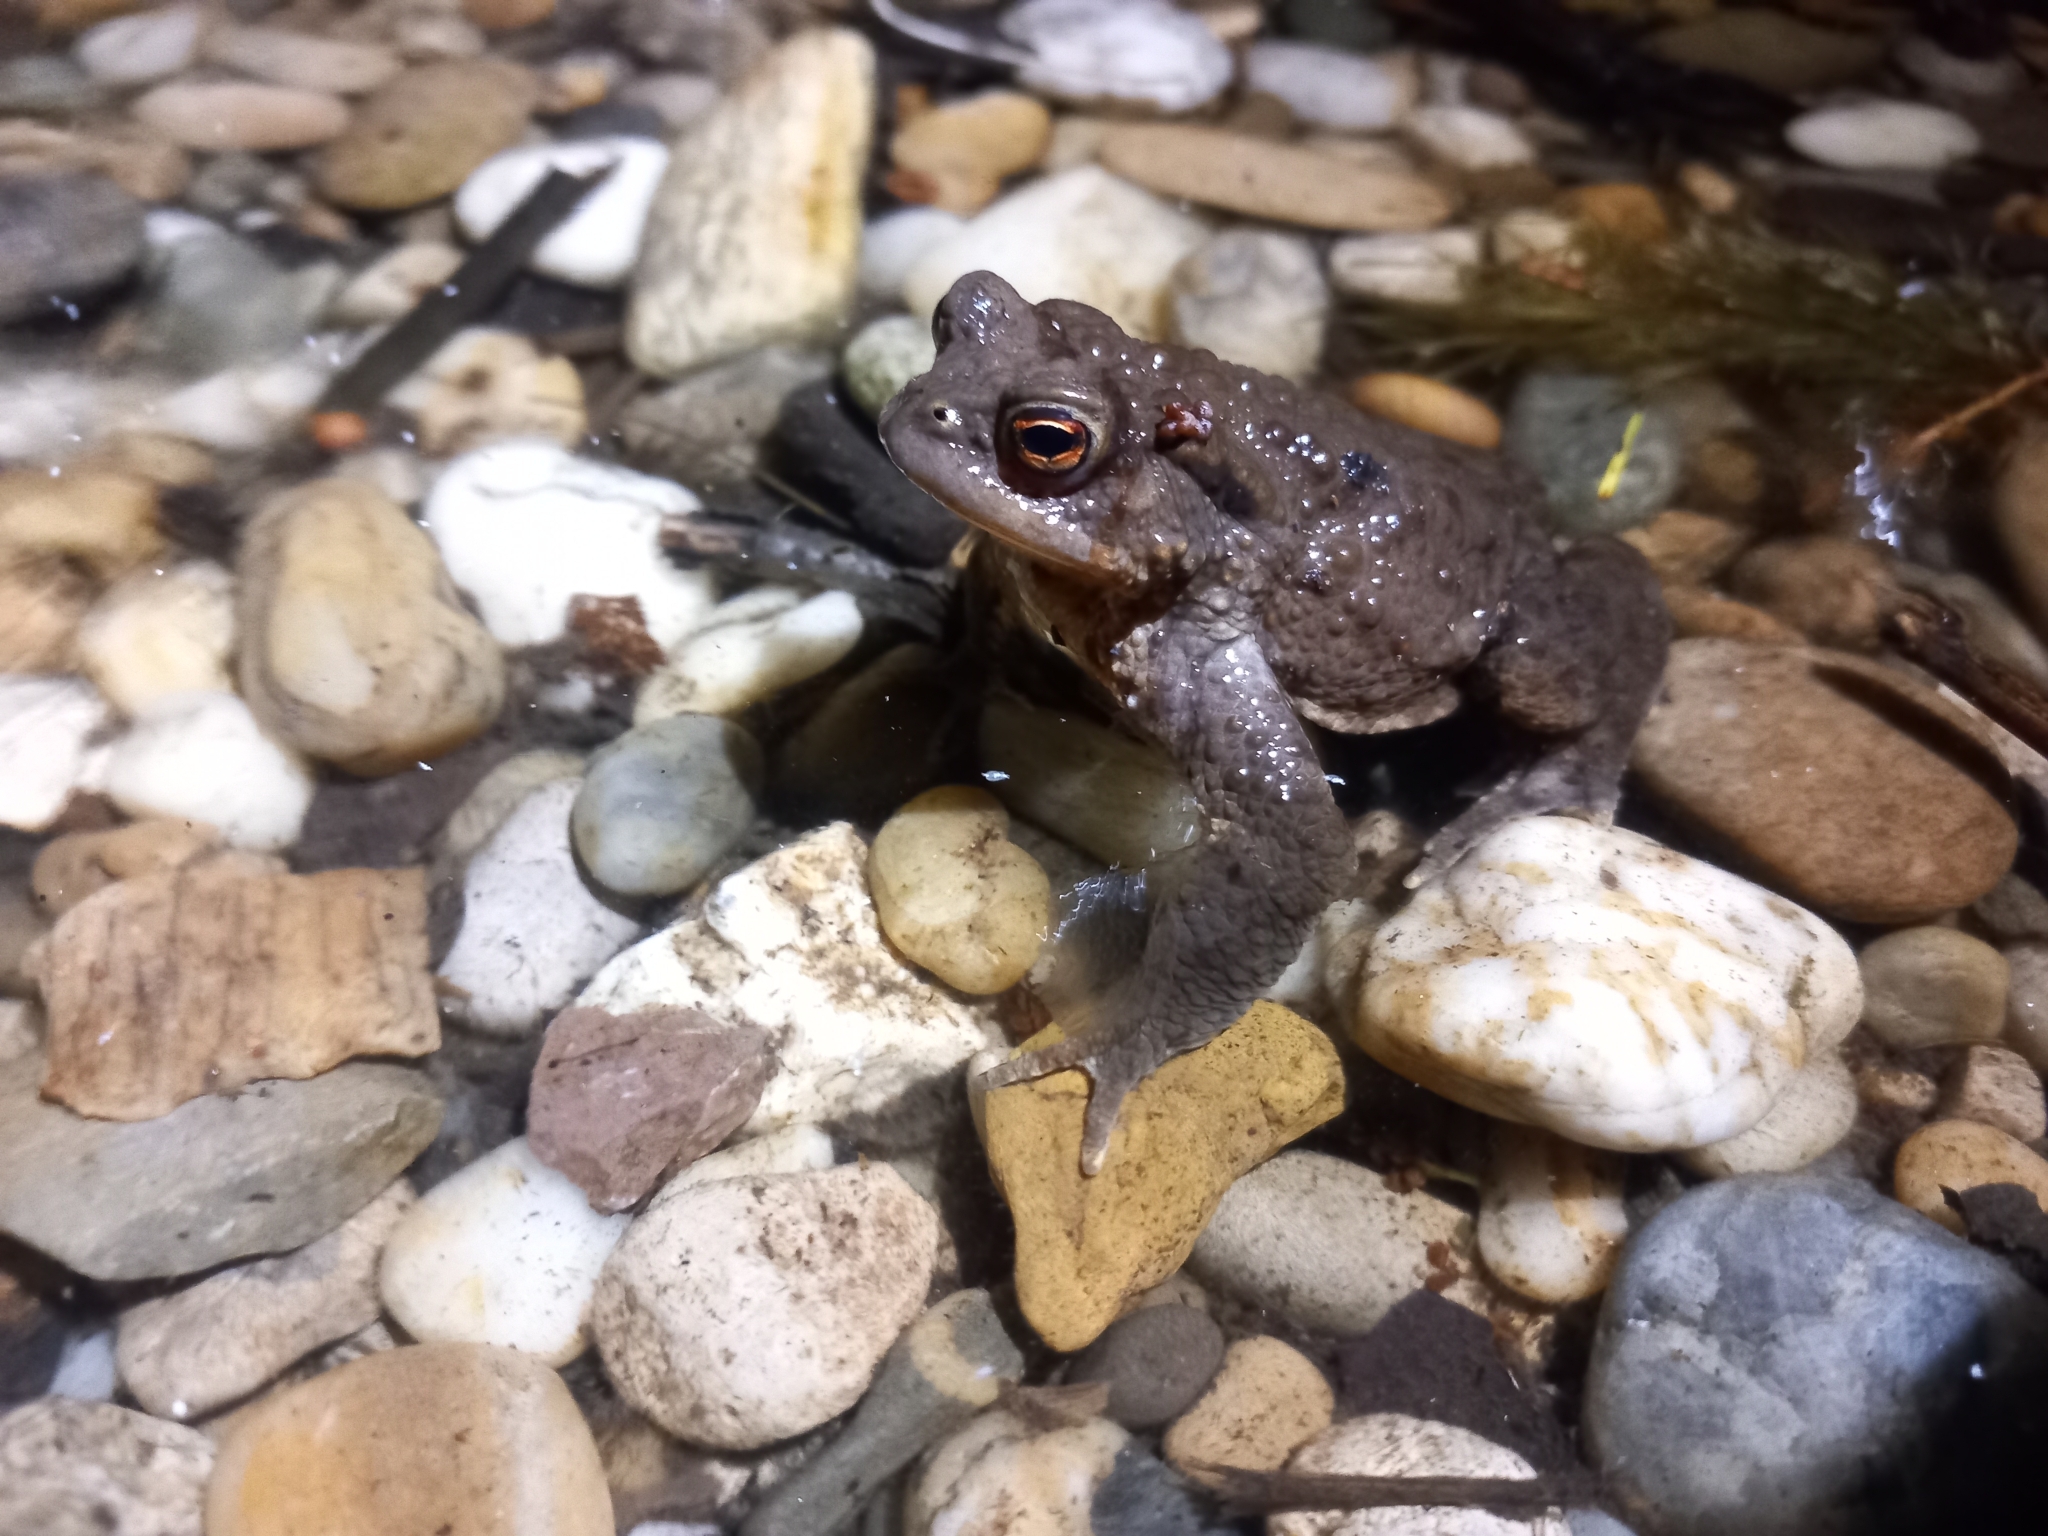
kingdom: Animalia
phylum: Chordata
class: Amphibia
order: Anura
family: Bufonidae
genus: Bufo
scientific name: Bufo bufo
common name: Common toad
